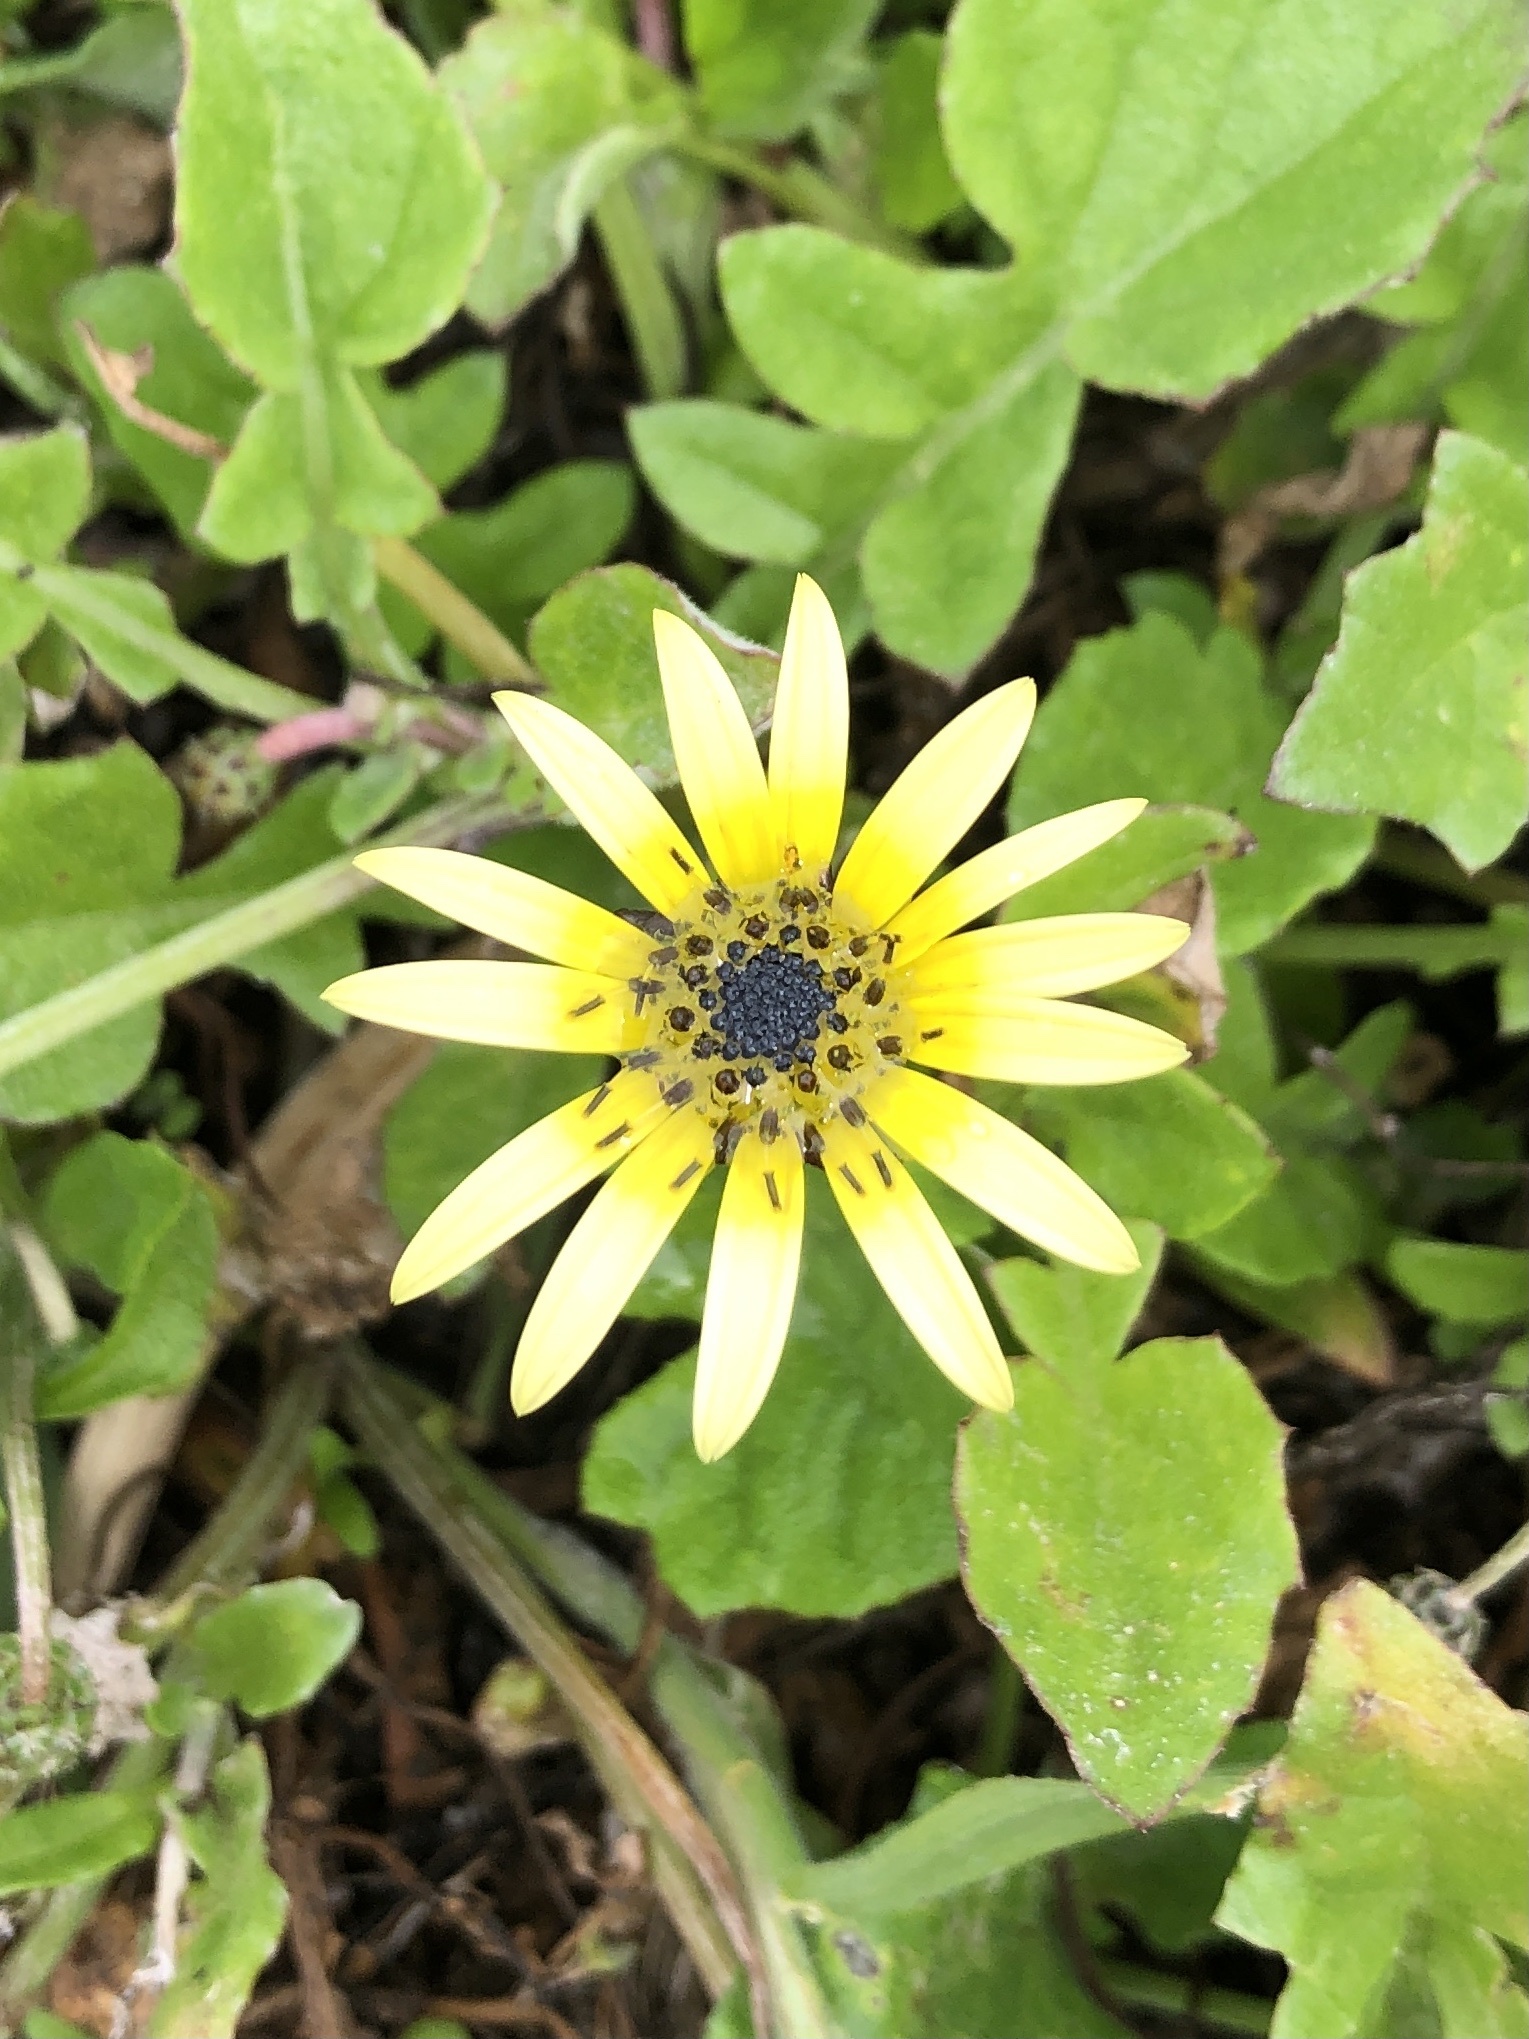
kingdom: Plantae
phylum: Tracheophyta
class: Magnoliopsida
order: Asterales
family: Asteraceae
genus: Arctotheca
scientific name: Arctotheca calendula
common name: Capeweed
